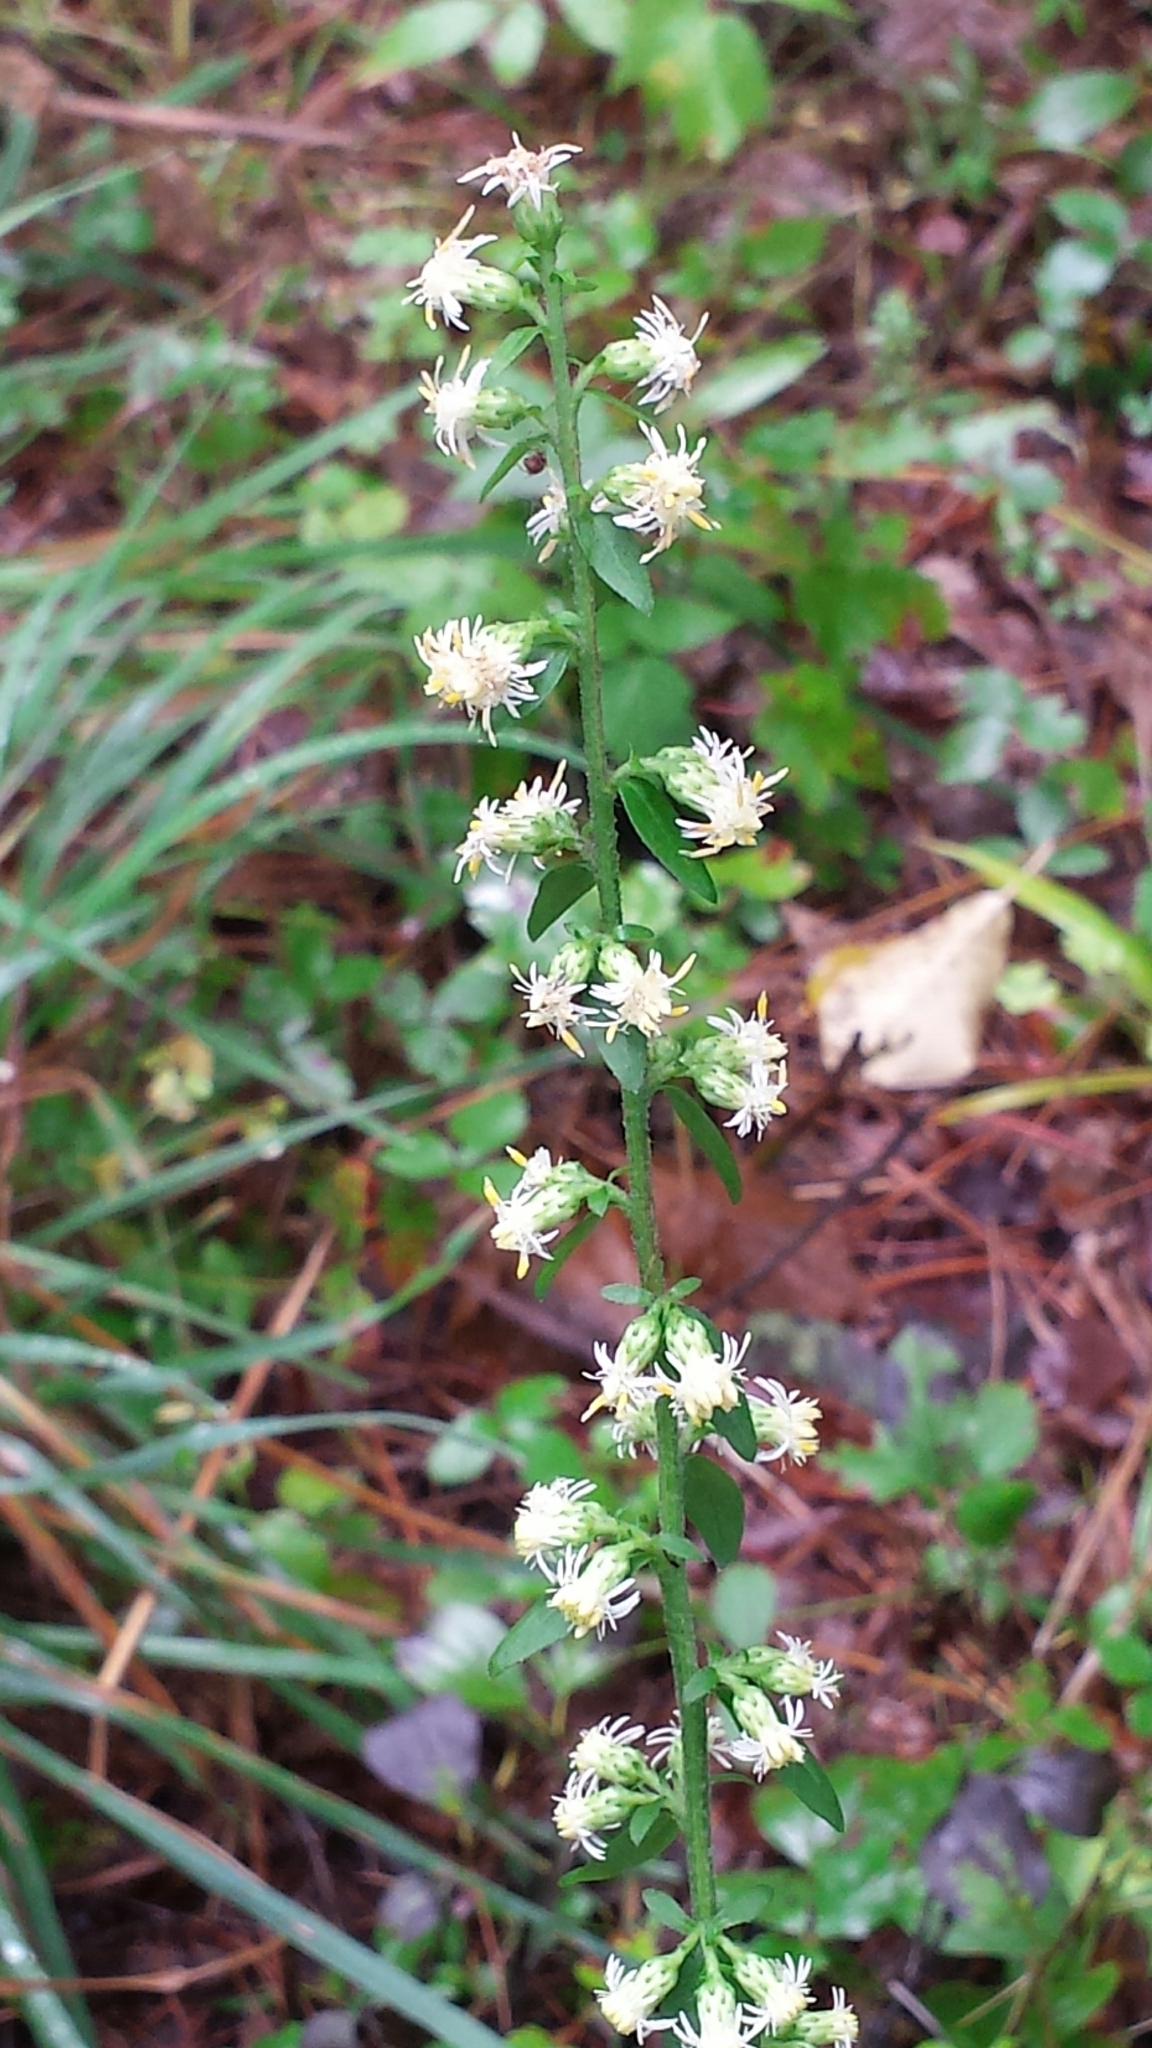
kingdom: Plantae
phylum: Tracheophyta
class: Magnoliopsida
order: Asterales
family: Asteraceae
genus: Solidago
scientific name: Solidago bicolor
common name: Silverrod
